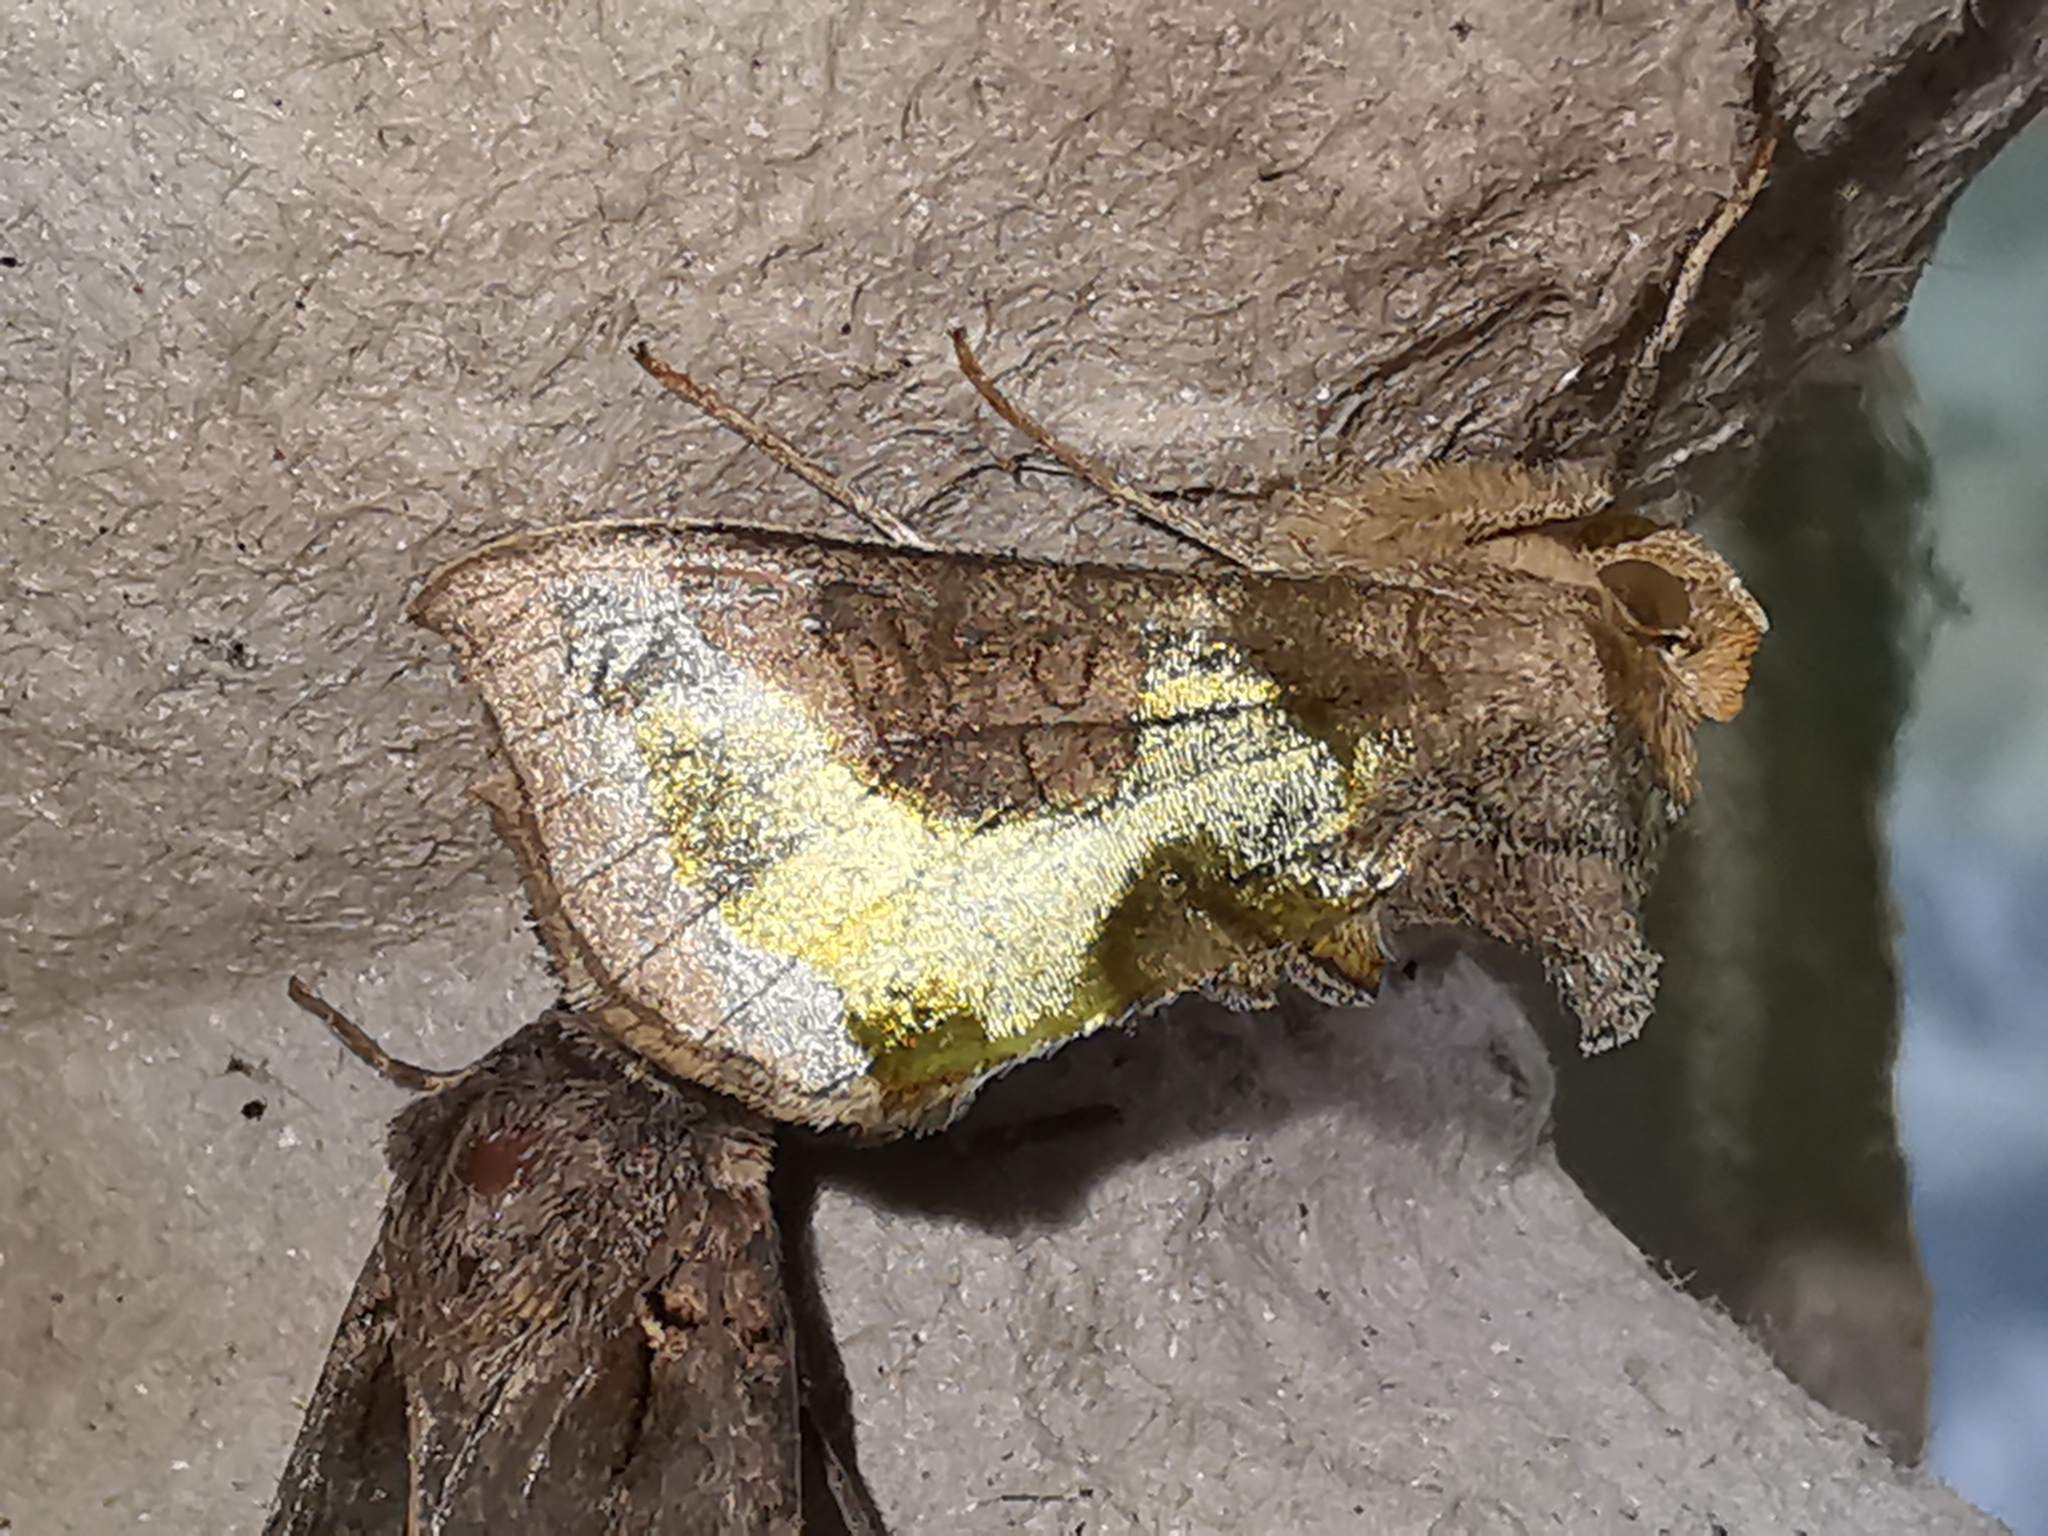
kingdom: Animalia
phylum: Arthropoda
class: Insecta
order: Lepidoptera
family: Noctuidae
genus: Diachrysia
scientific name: Diachrysia chrysitis
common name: Burnished brass
